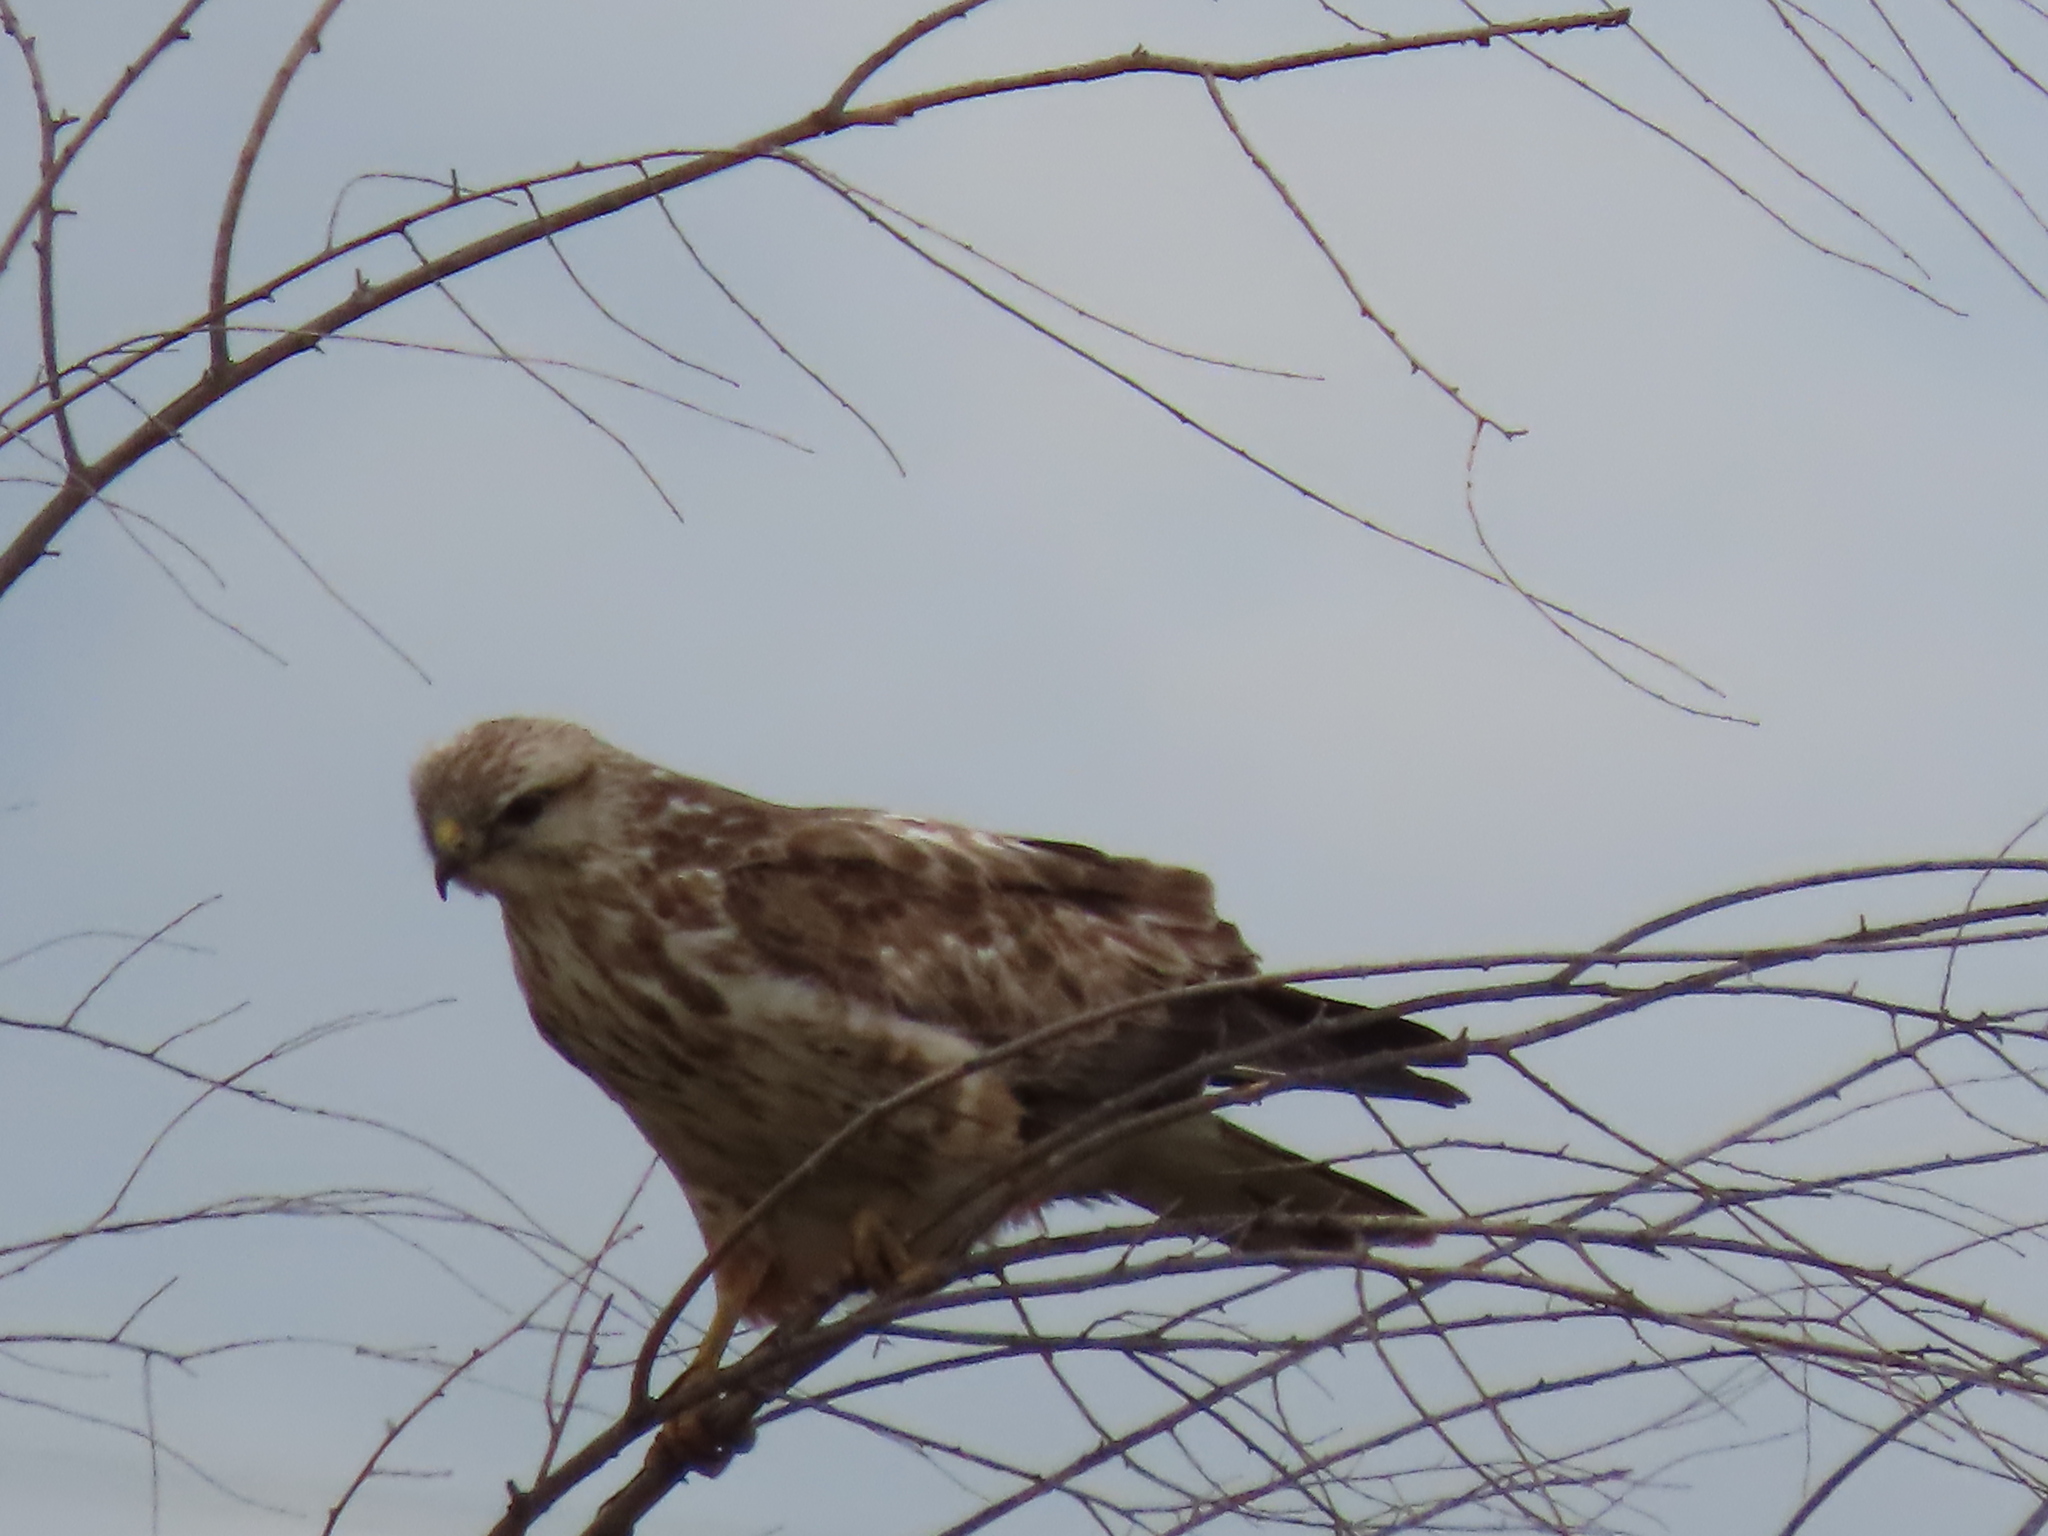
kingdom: Animalia
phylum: Chordata
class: Aves
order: Accipitriformes
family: Accipitridae
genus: Buteo
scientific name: Buteo rufinus
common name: Long-legged buzzard
